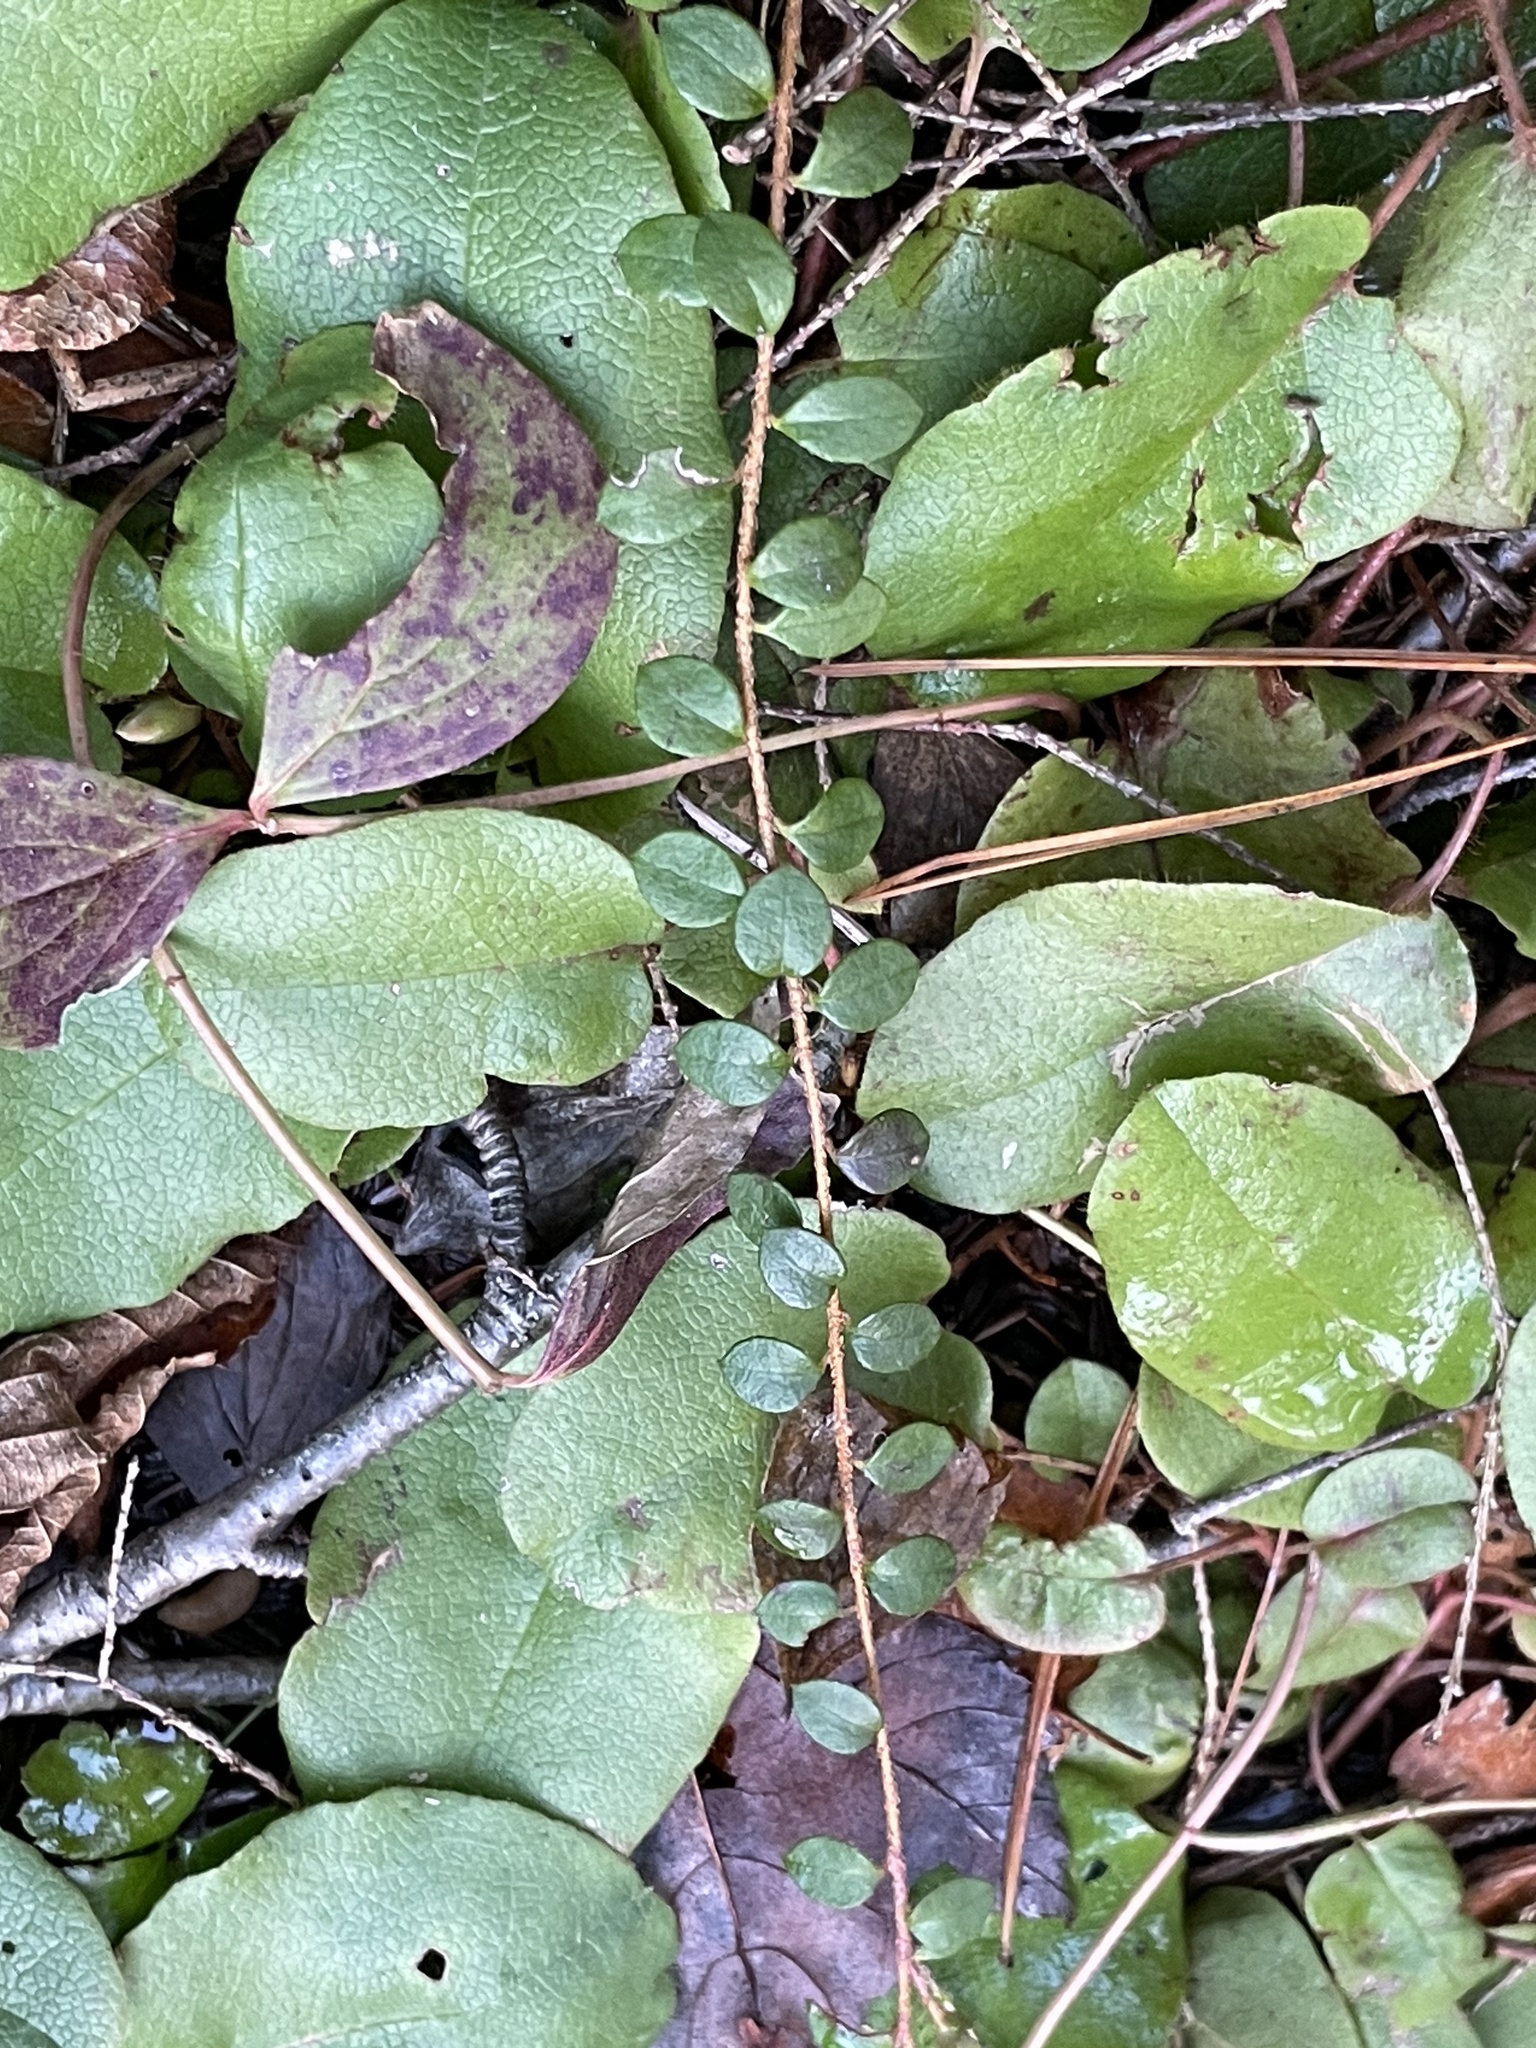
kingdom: Plantae
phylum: Tracheophyta
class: Magnoliopsida
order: Ericales
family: Ericaceae
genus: Gaultheria
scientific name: Gaultheria hispidula
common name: Cancer wintergreen
